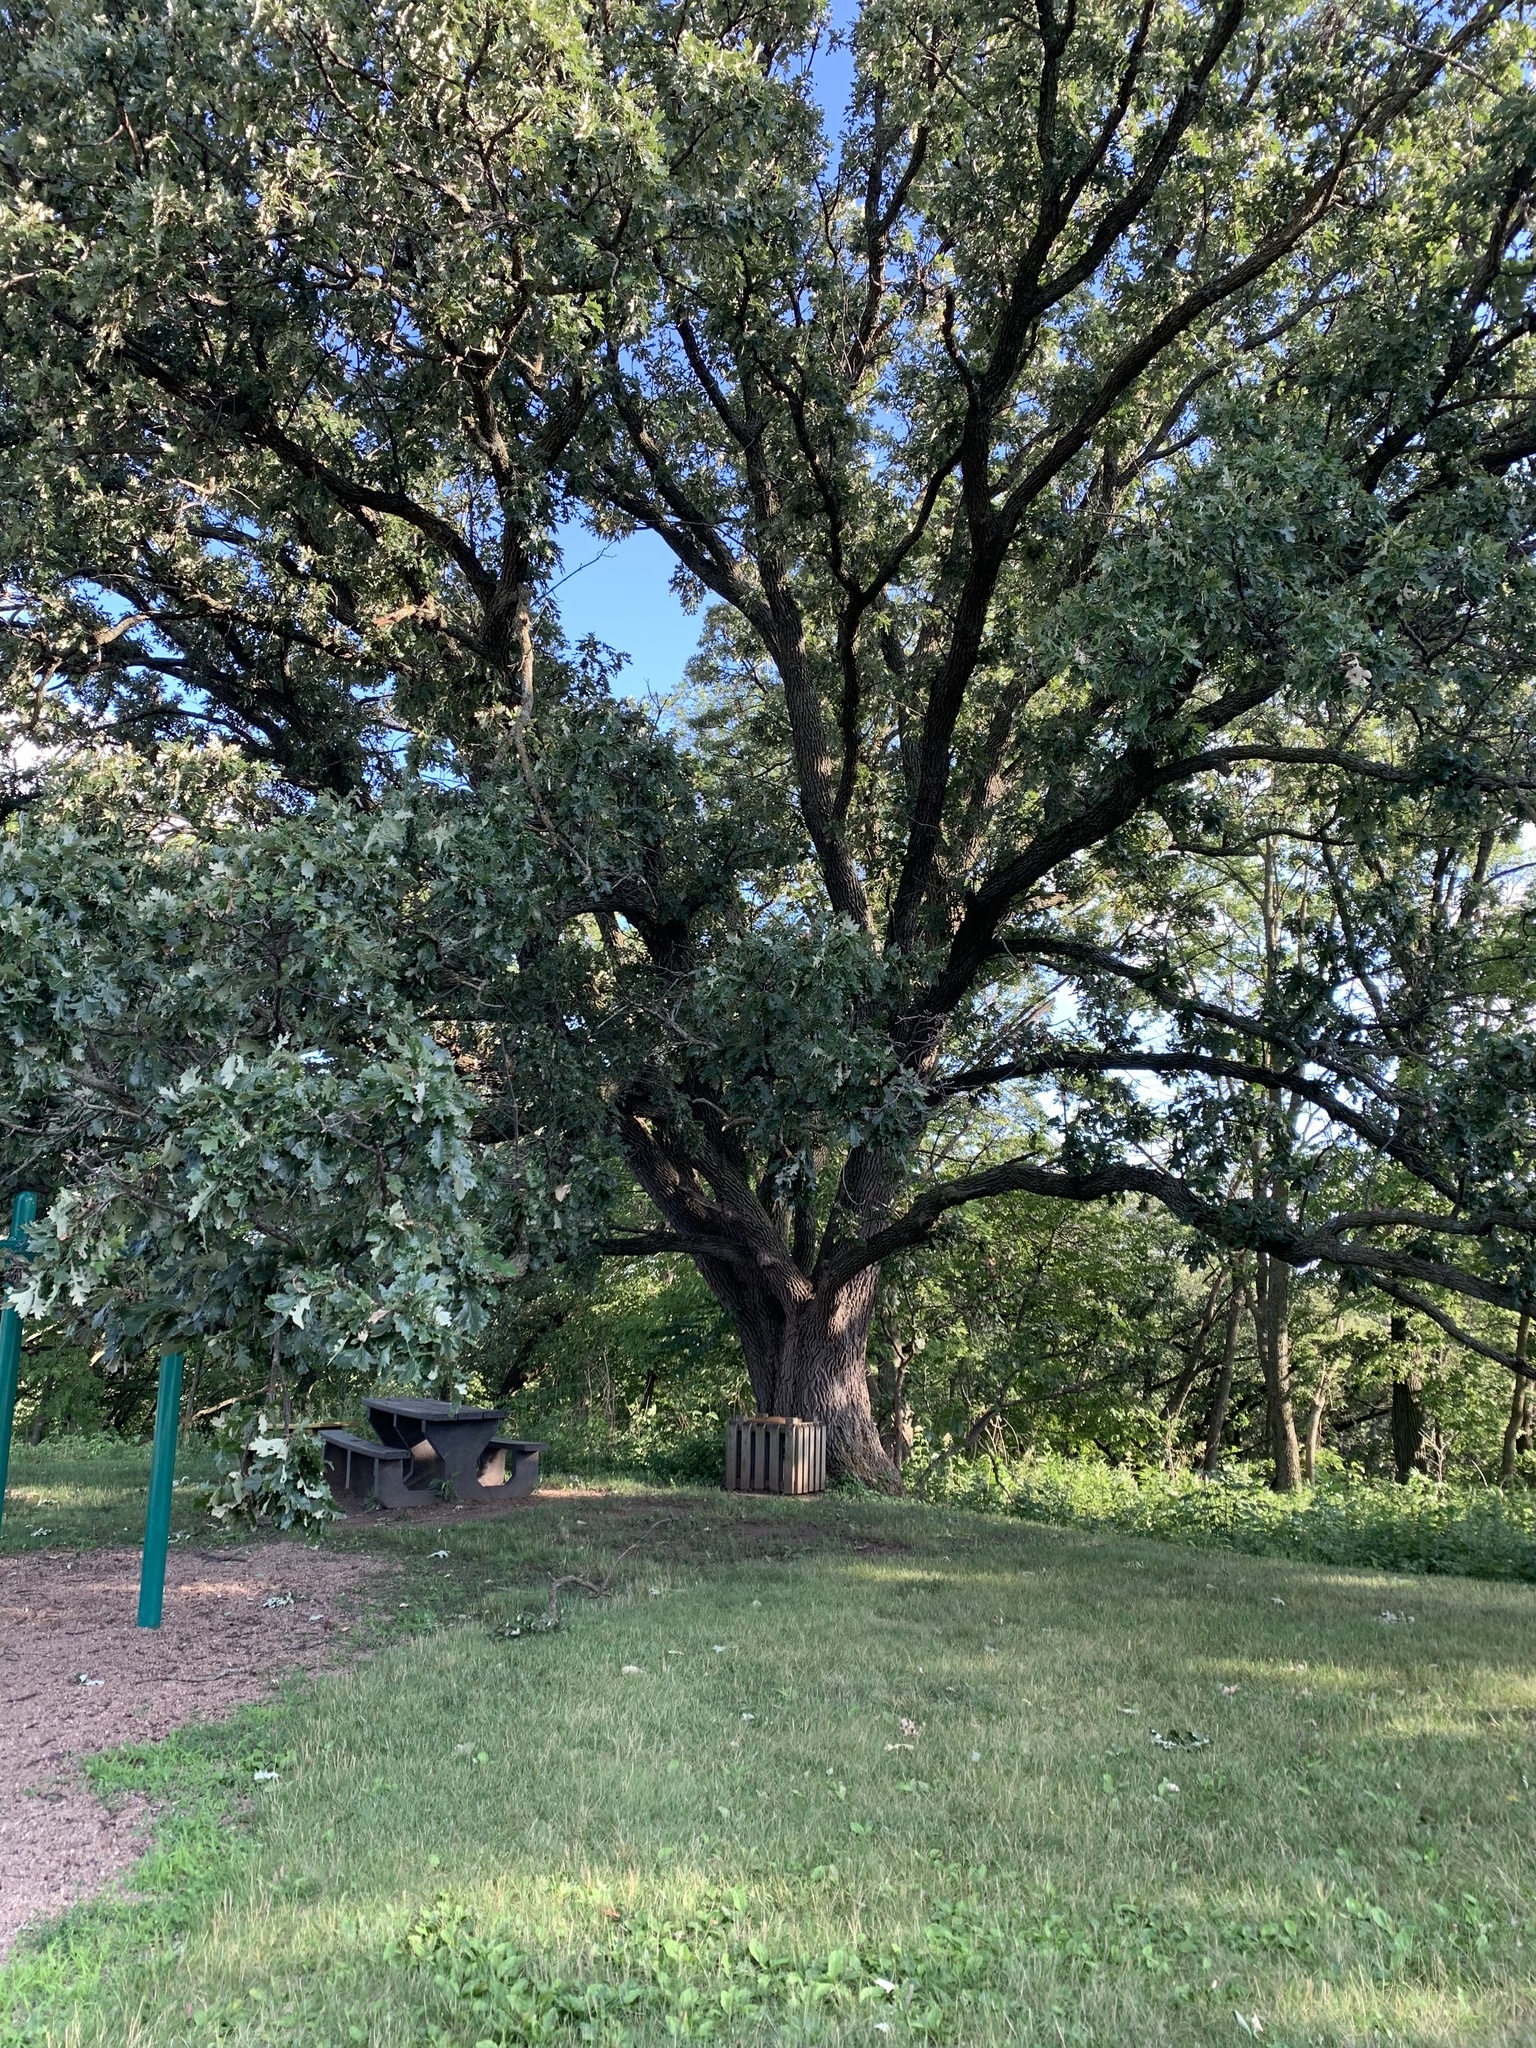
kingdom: Plantae
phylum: Tracheophyta
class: Magnoliopsida
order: Fagales
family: Fagaceae
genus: Quercus
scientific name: Quercus macrocarpa
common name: Bur oak
